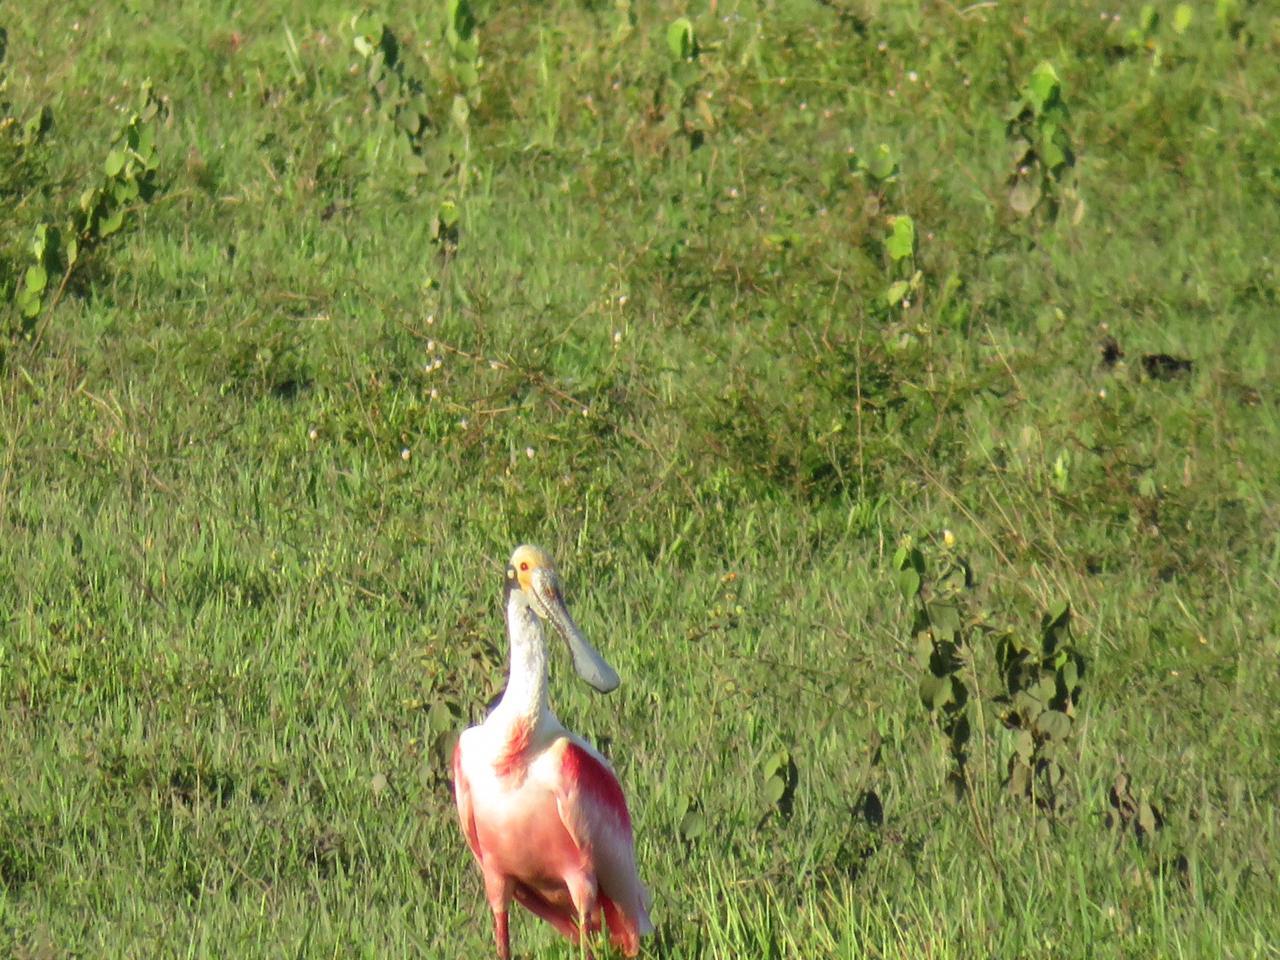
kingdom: Animalia
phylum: Chordata
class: Aves
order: Pelecaniformes
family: Threskiornithidae
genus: Platalea
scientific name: Platalea ajaja
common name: Roseate spoonbill
